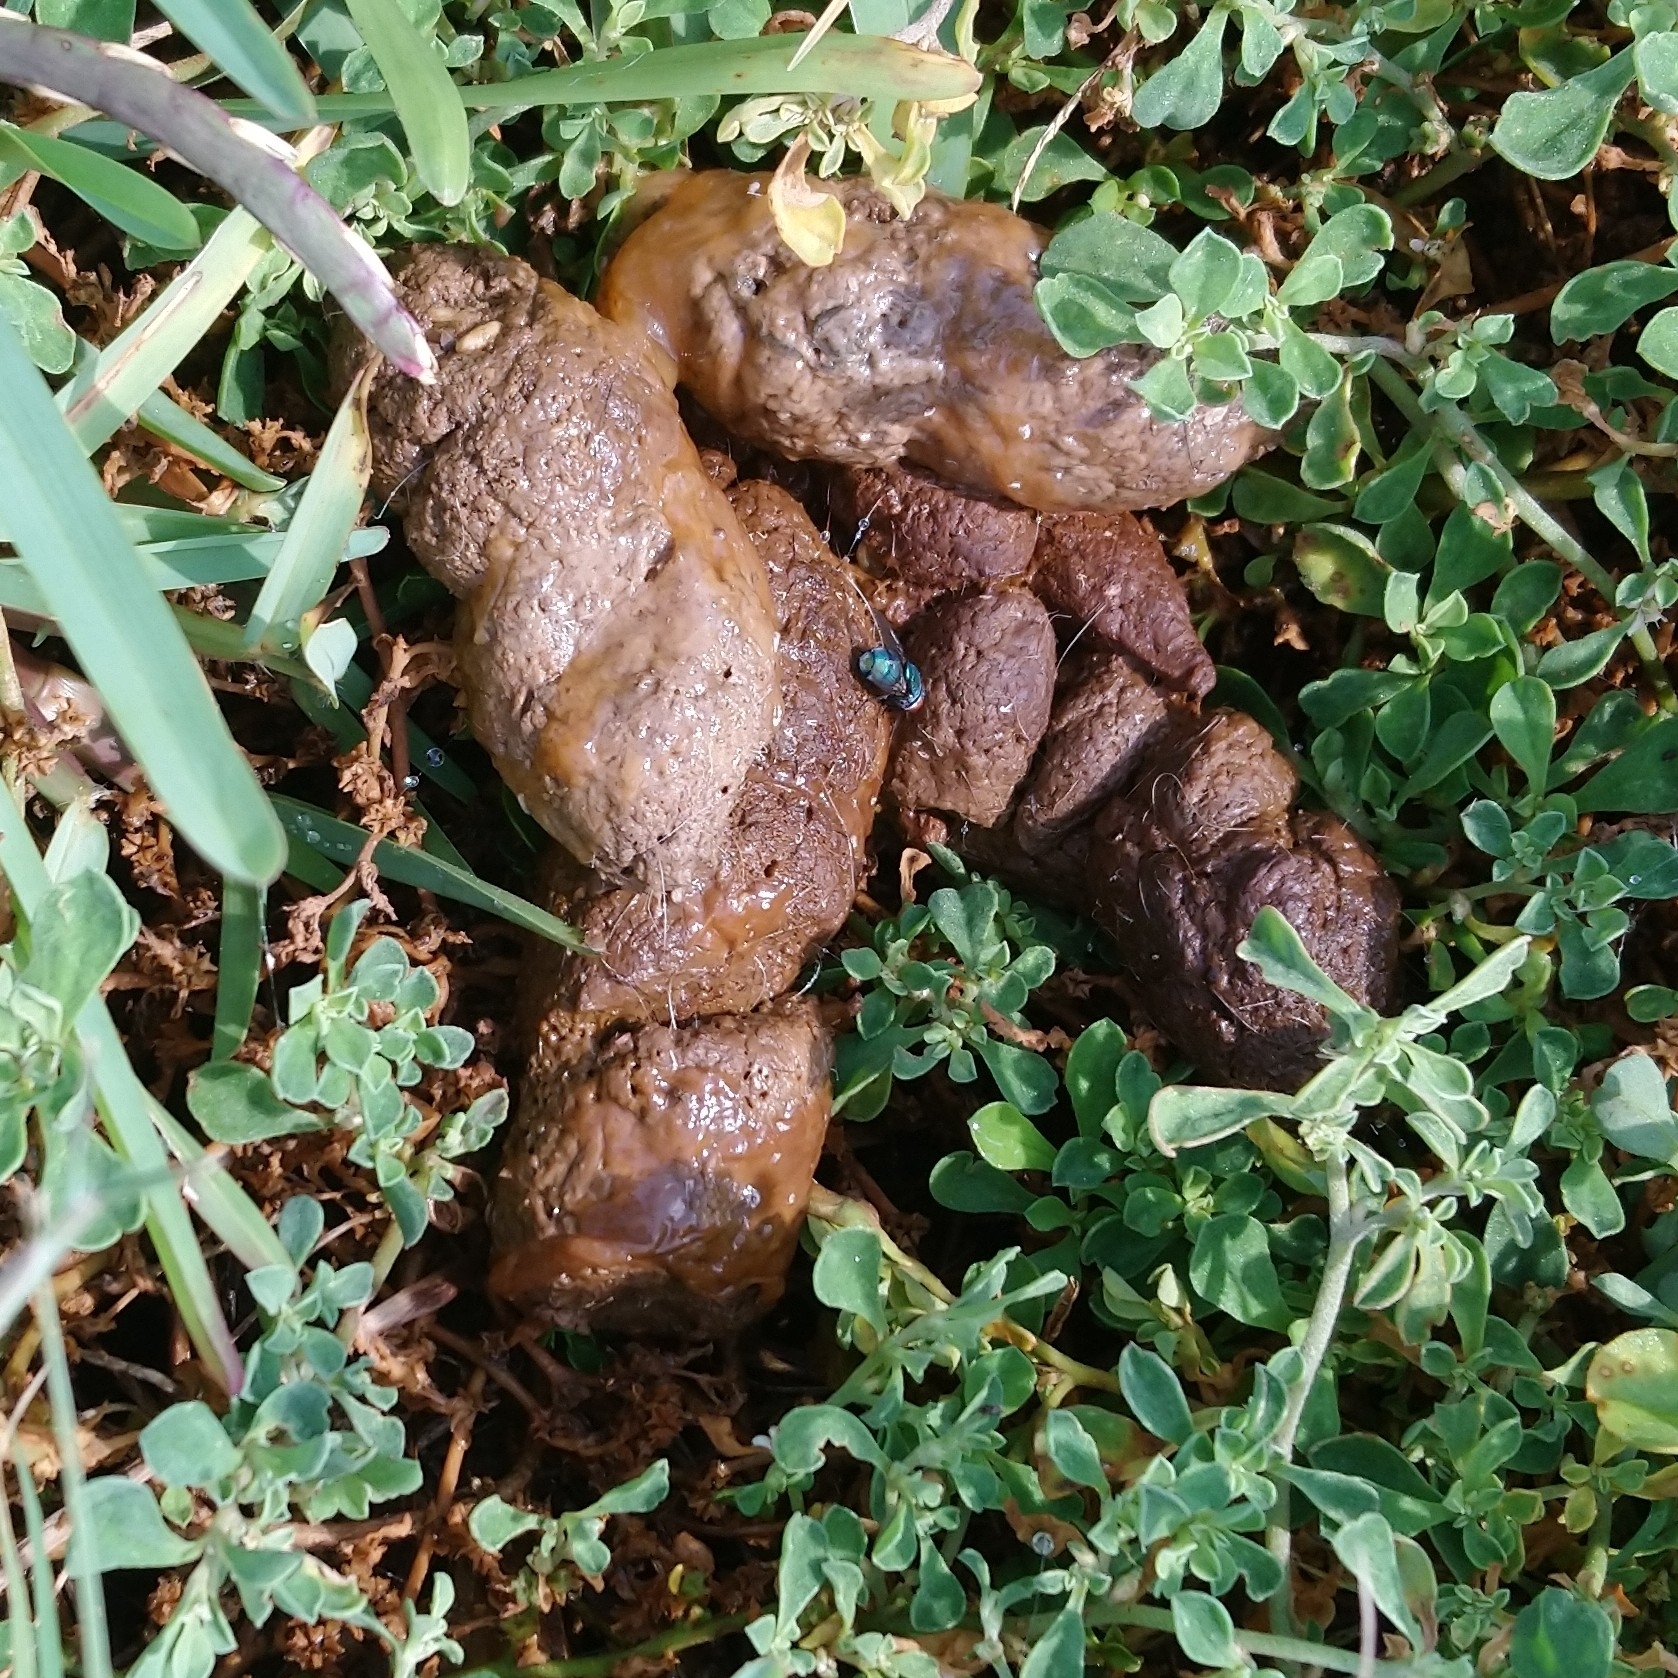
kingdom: Animalia
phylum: Chordata
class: Mammalia
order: Carnivora
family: Canidae
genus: Canis
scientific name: Canis lupus
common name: Gray wolf
